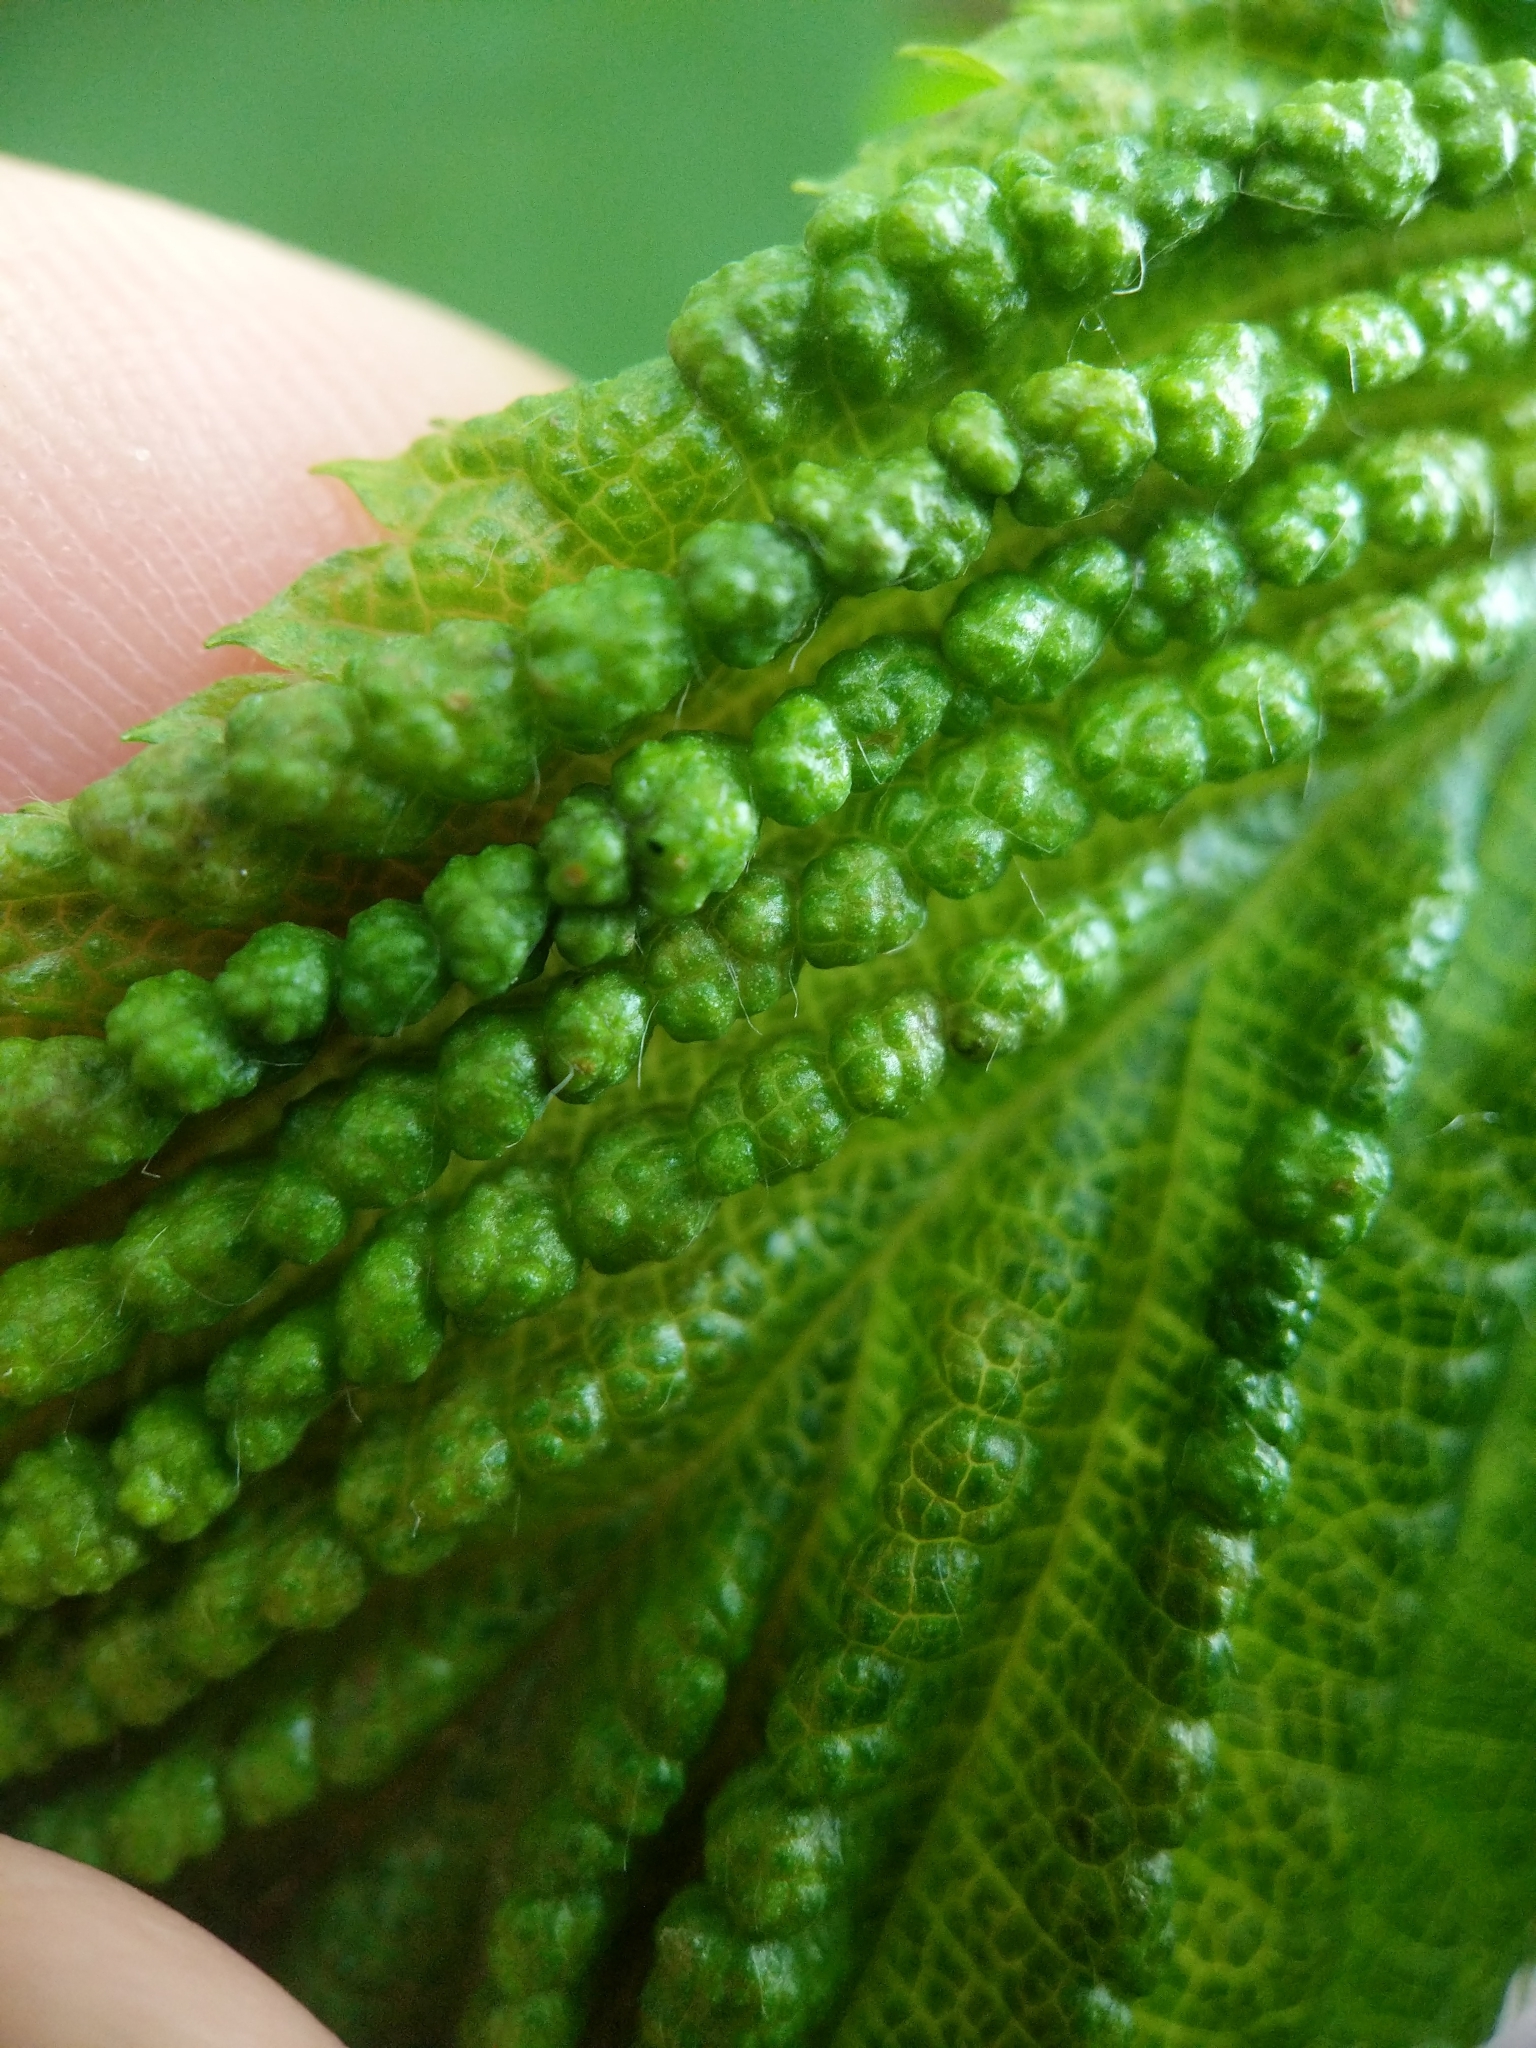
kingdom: Animalia
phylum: Arthropoda
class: Insecta
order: Hemiptera
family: Aphididae
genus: Hamamelistes
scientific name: Hamamelistes spinosus
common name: Witch hazel gall aphid
